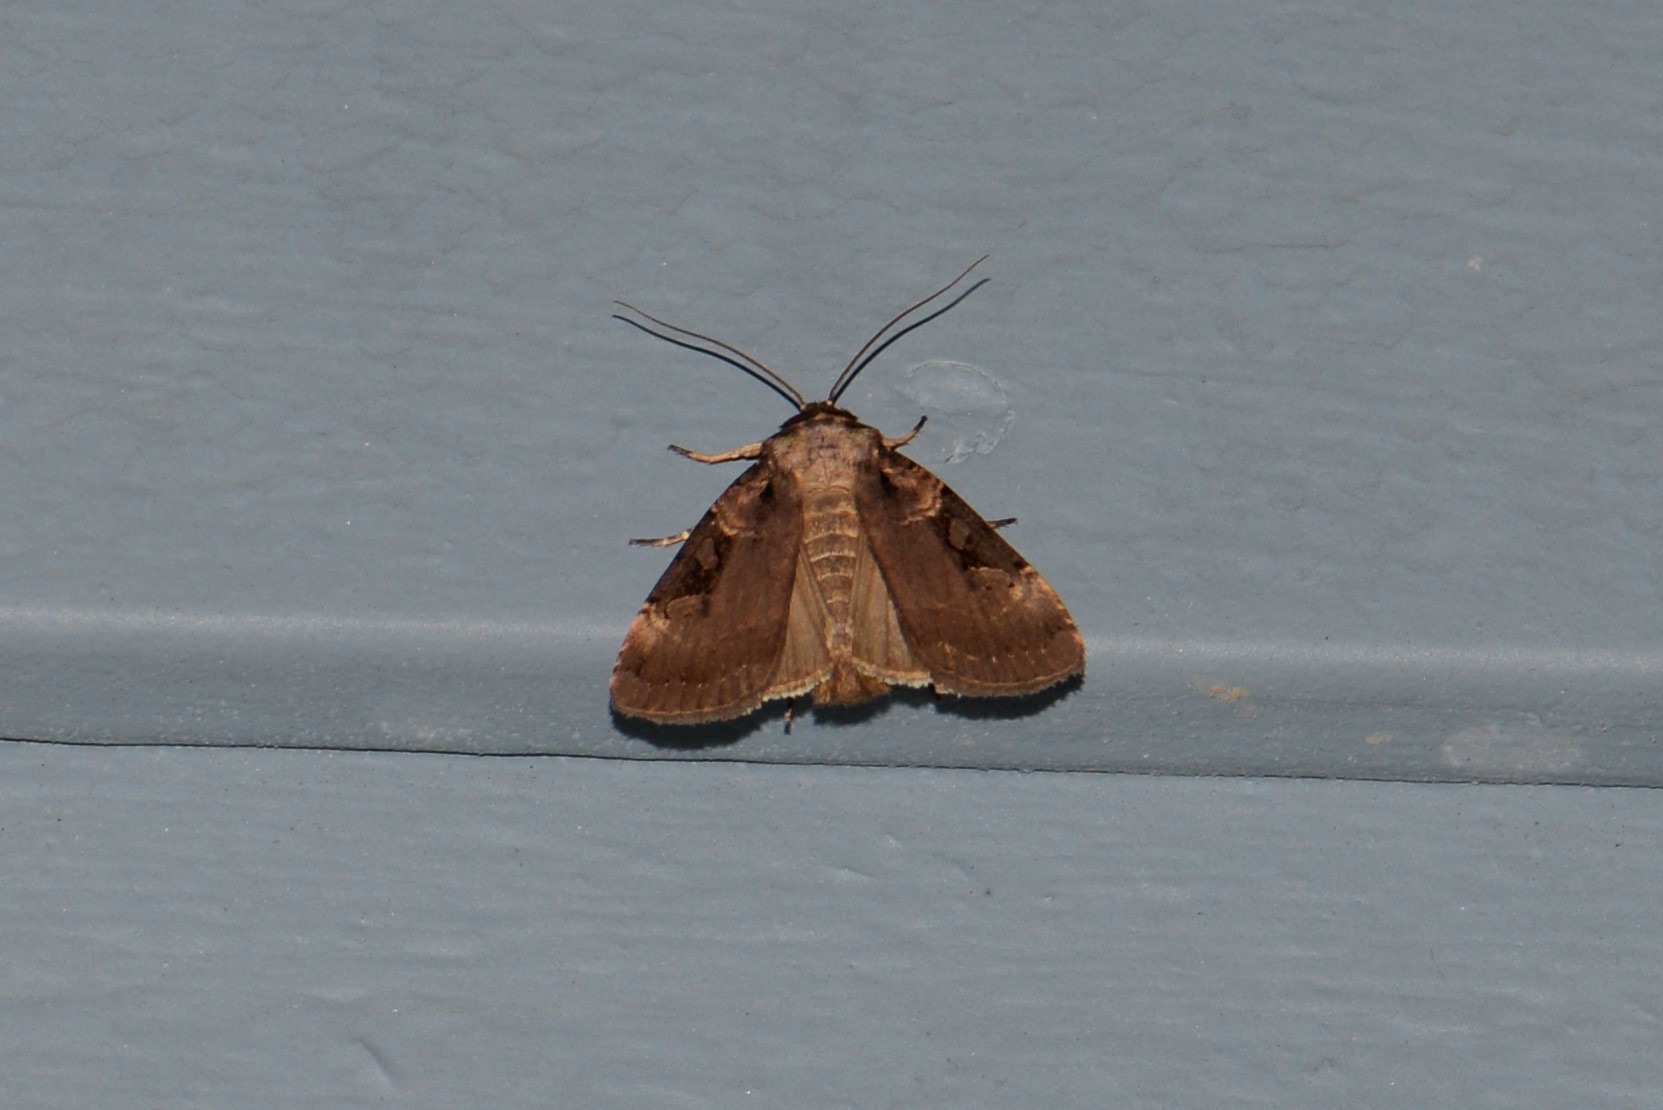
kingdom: Animalia
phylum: Arthropoda
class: Insecta
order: Lepidoptera
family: Noctuidae
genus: Pseudohermonassa
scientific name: Pseudohermonassa bicarnea
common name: Pink spotted dart
